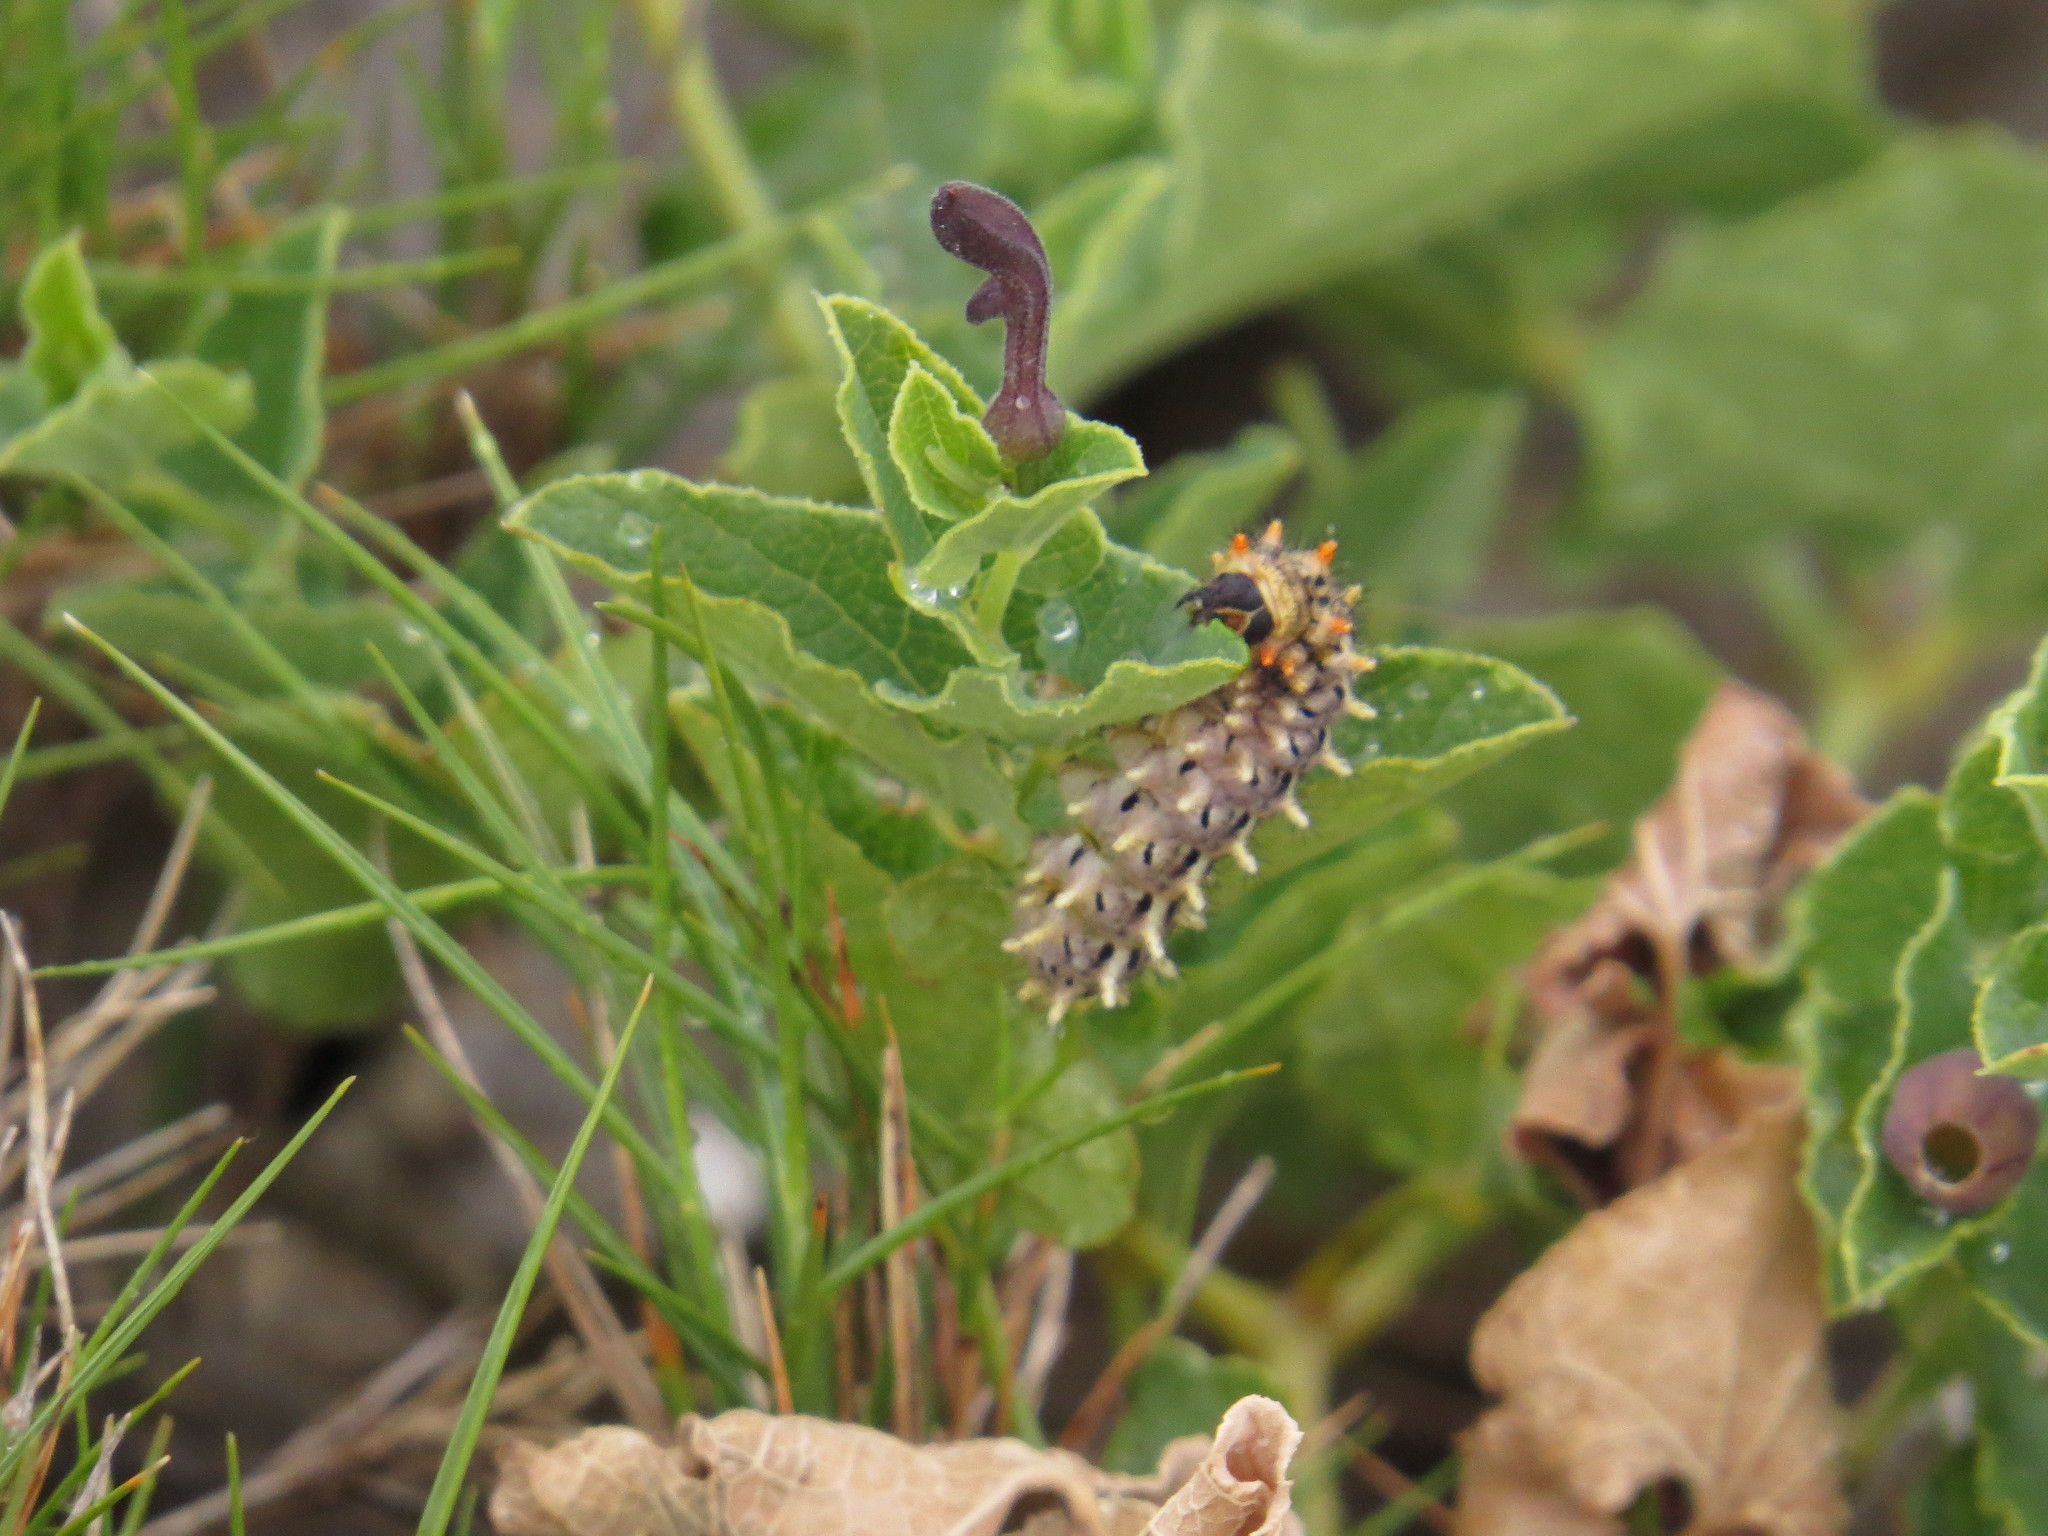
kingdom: Animalia
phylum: Arthropoda
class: Insecta
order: Lepidoptera
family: Papilionidae
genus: Zerynthia
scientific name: Zerynthia rumina
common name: Spanish festoon
